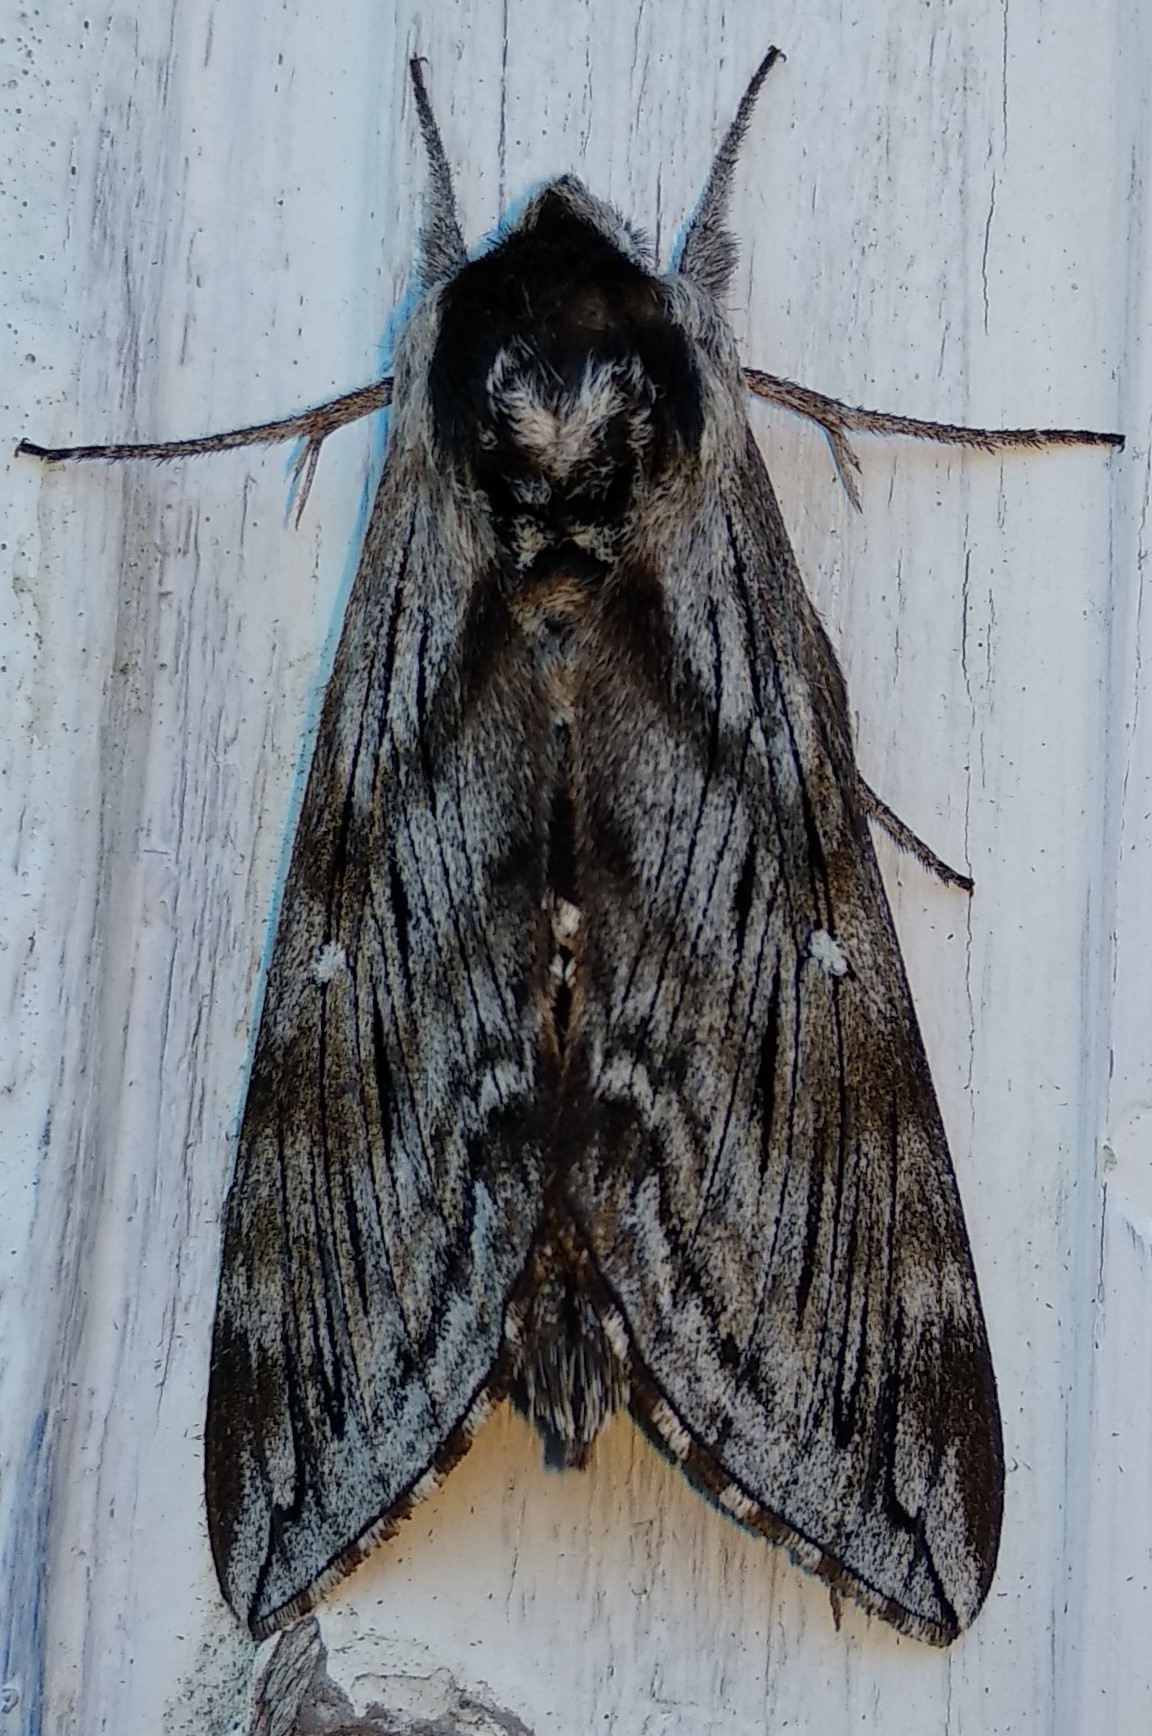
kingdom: Animalia
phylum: Arthropoda
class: Insecta
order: Lepidoptera
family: Sphingidae
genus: Sphinx
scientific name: Sphinx poecila
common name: Northern apple sphinx
